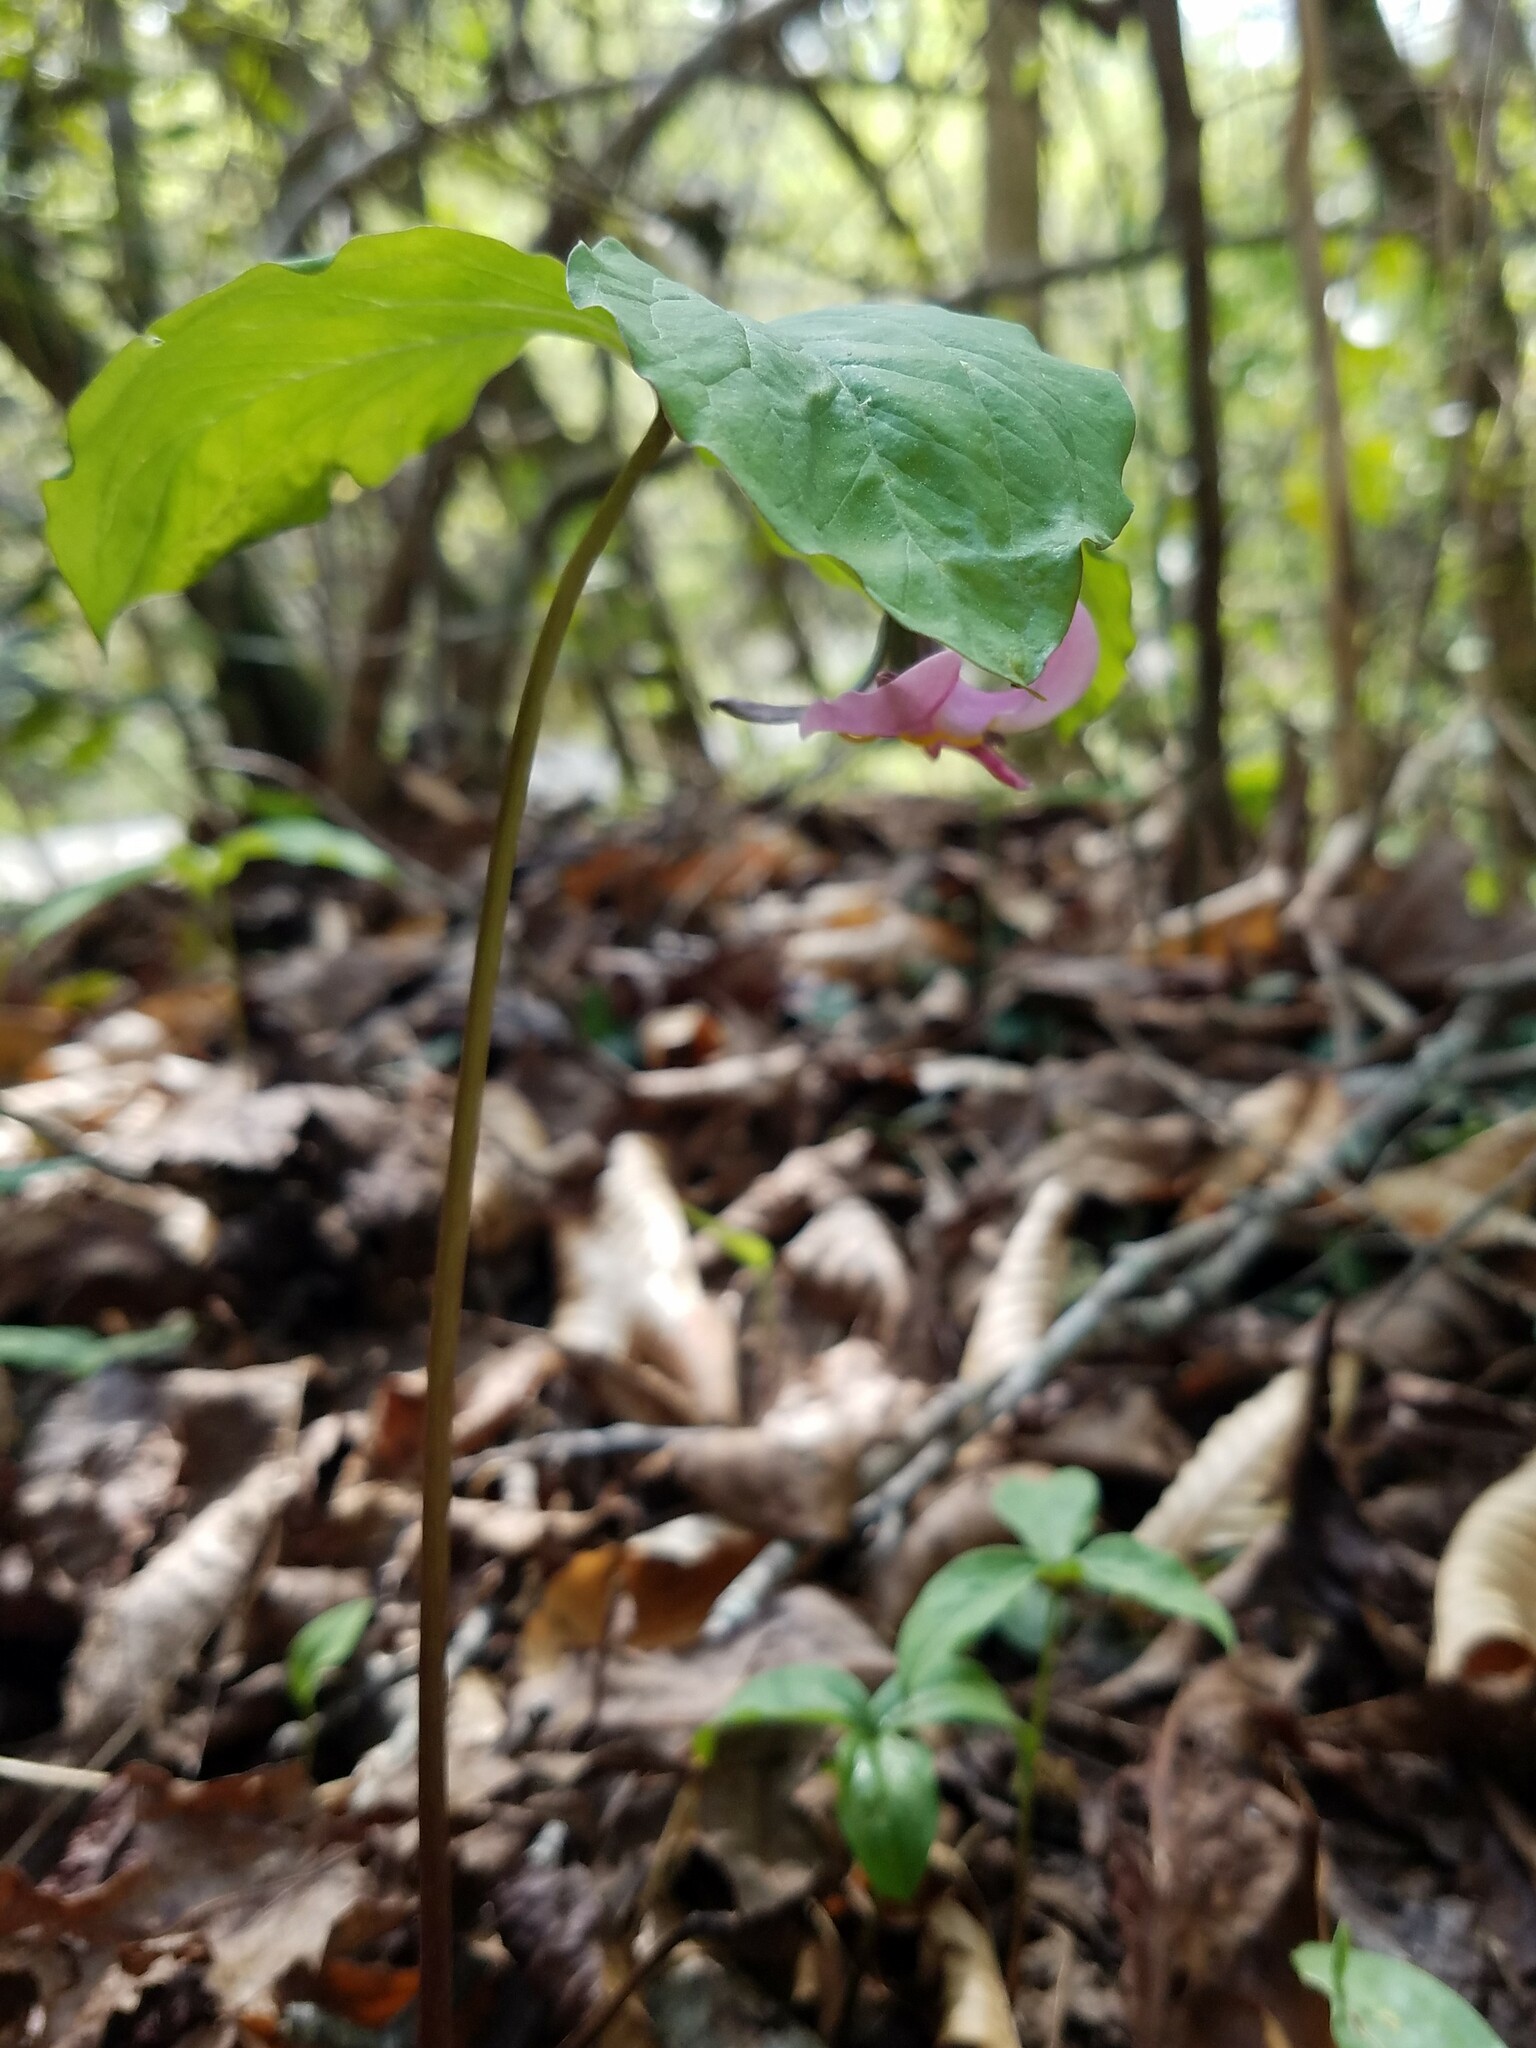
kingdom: Plantae
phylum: Tracheophyta
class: Liliopsida
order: Liliales
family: Melanthiaceae
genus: Trillium
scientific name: Trillium catesbaei
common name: Bashful trillium
